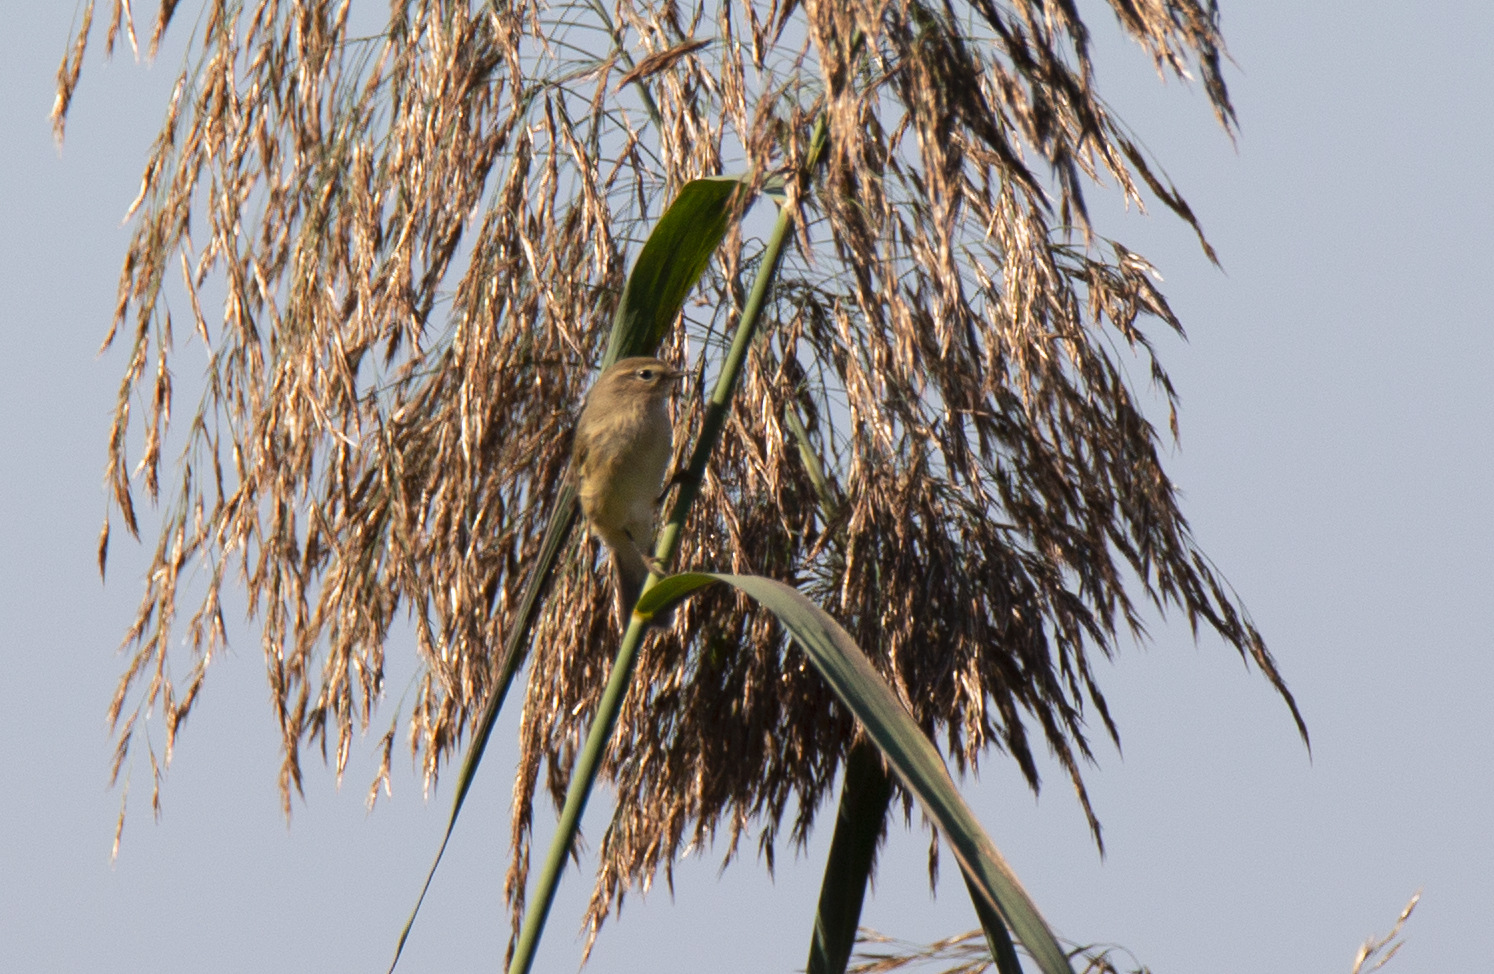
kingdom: Animalia
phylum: Chordata
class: Aves
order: Passeriformes
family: Phylloscopidae
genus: Phylloscopus
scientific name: Phylloscopus collybita
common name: Common chiffchaff
